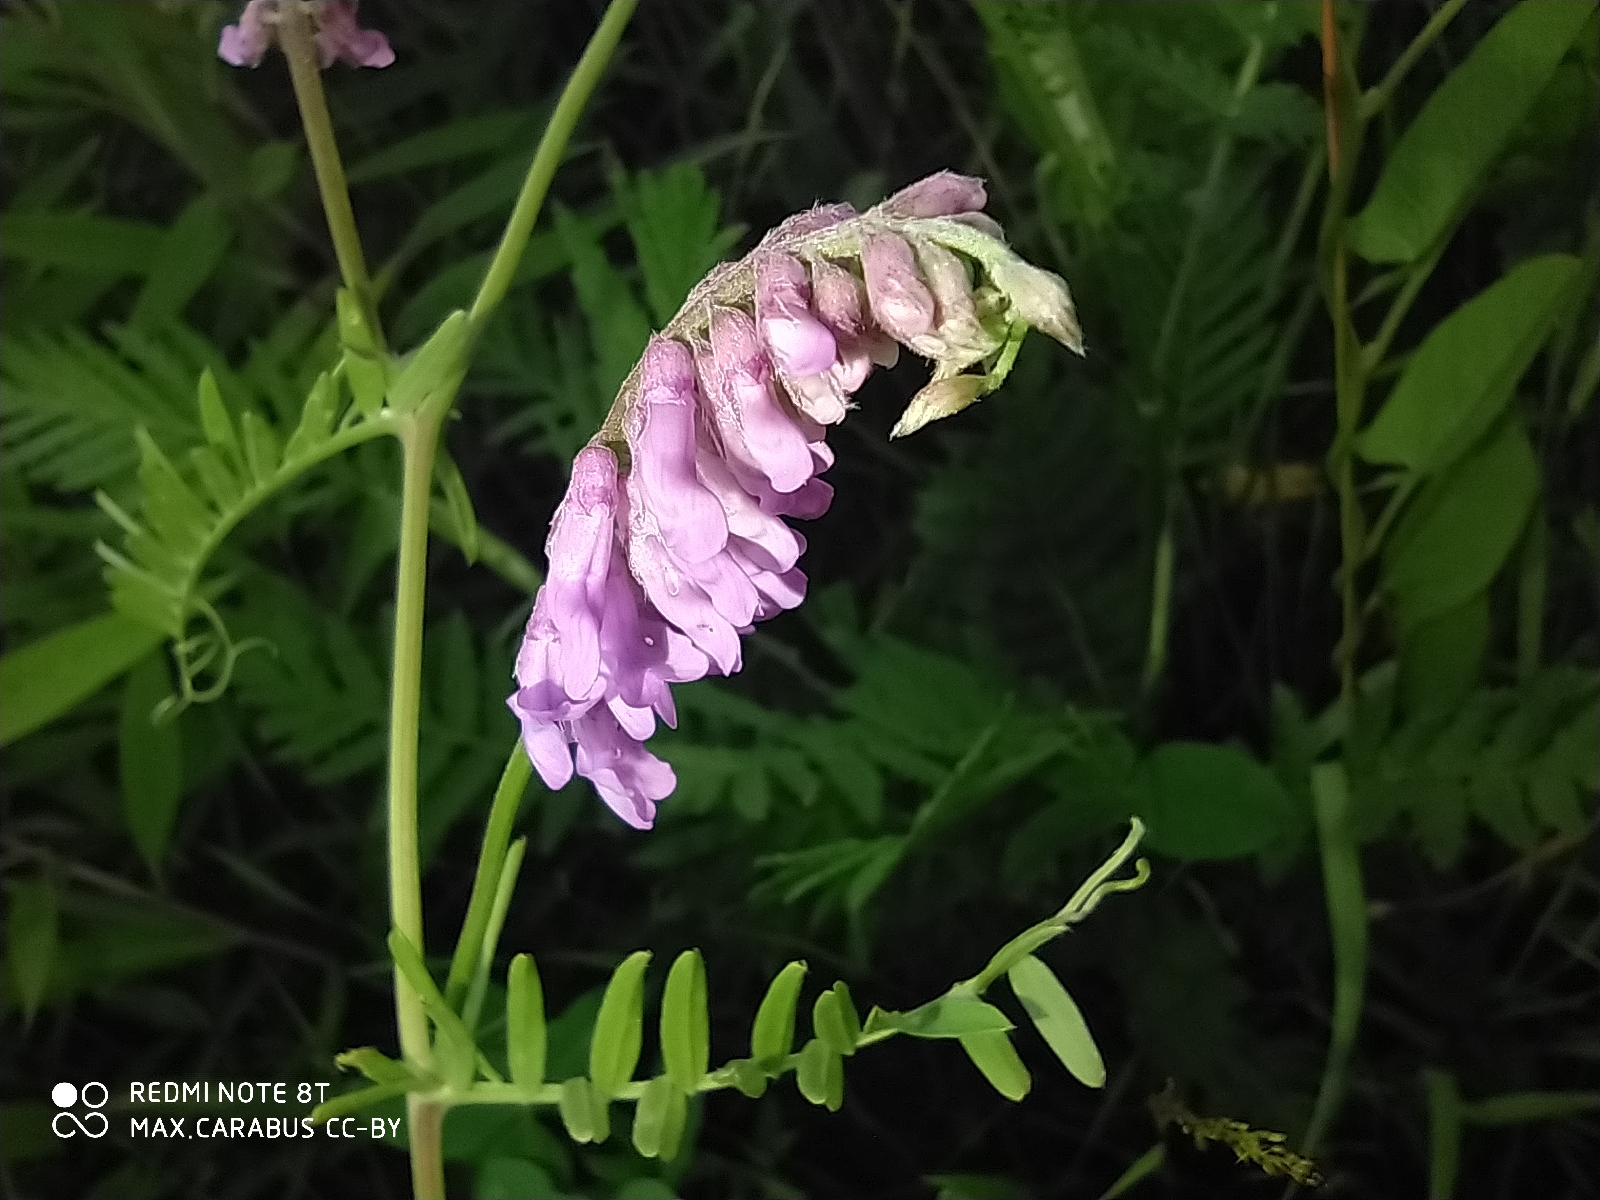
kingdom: Plantae
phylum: Tracheophyta
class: Magnoliopsida
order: Fabales
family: Fabaceae
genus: Vicia
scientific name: Vicia cracca
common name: Bird vetch
